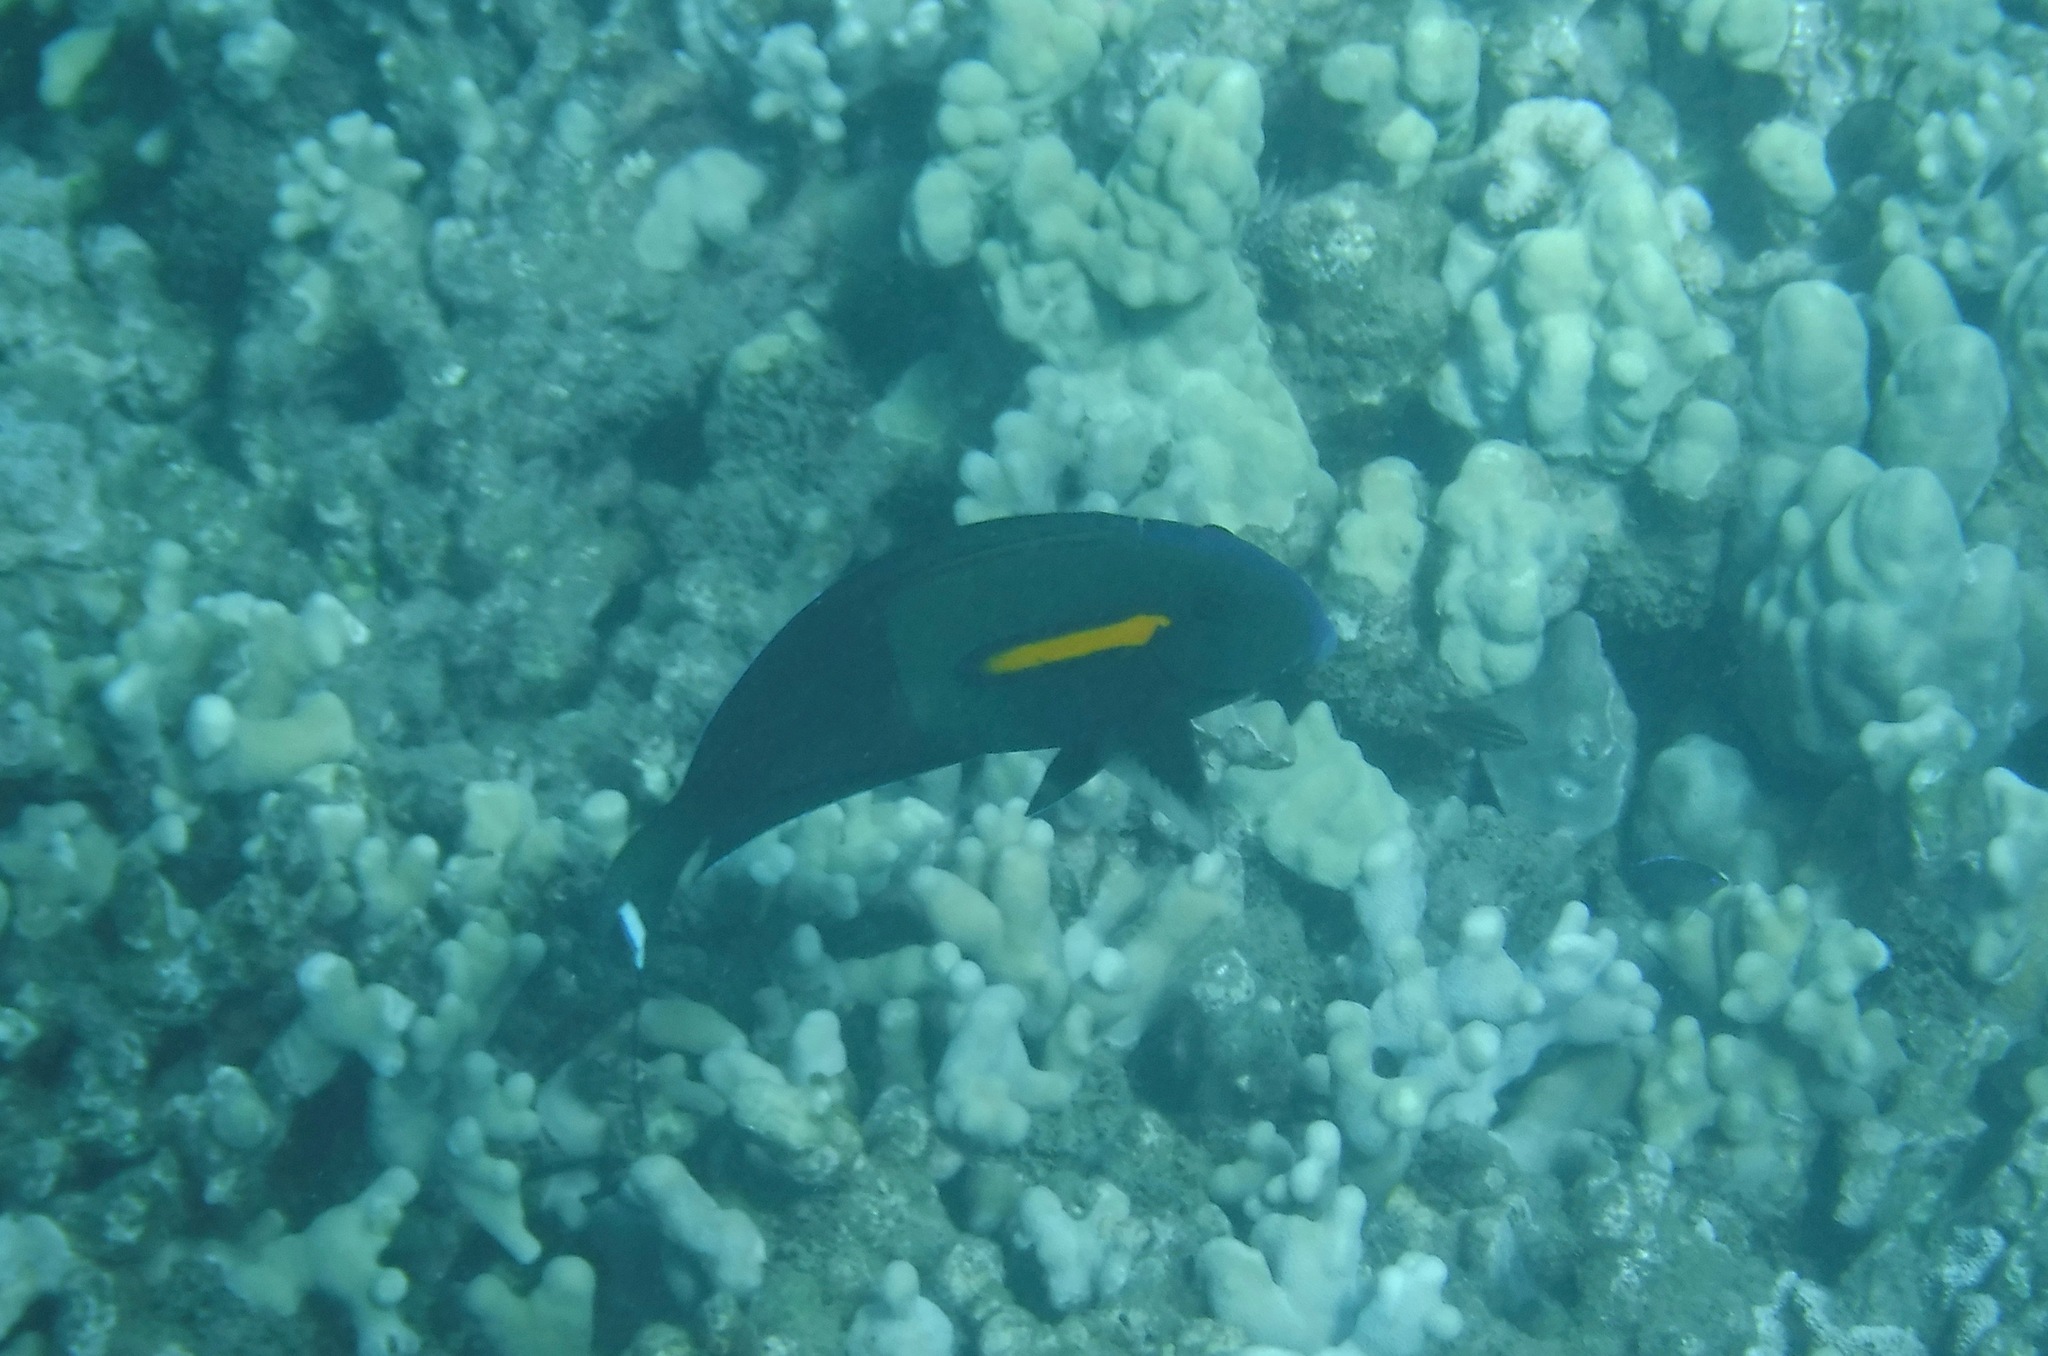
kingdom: Animalia
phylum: Chordata
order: Perciformes
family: Acanthuridae
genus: Acanthurus
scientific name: Acanthurus olivaceus
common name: Gendarme fish
